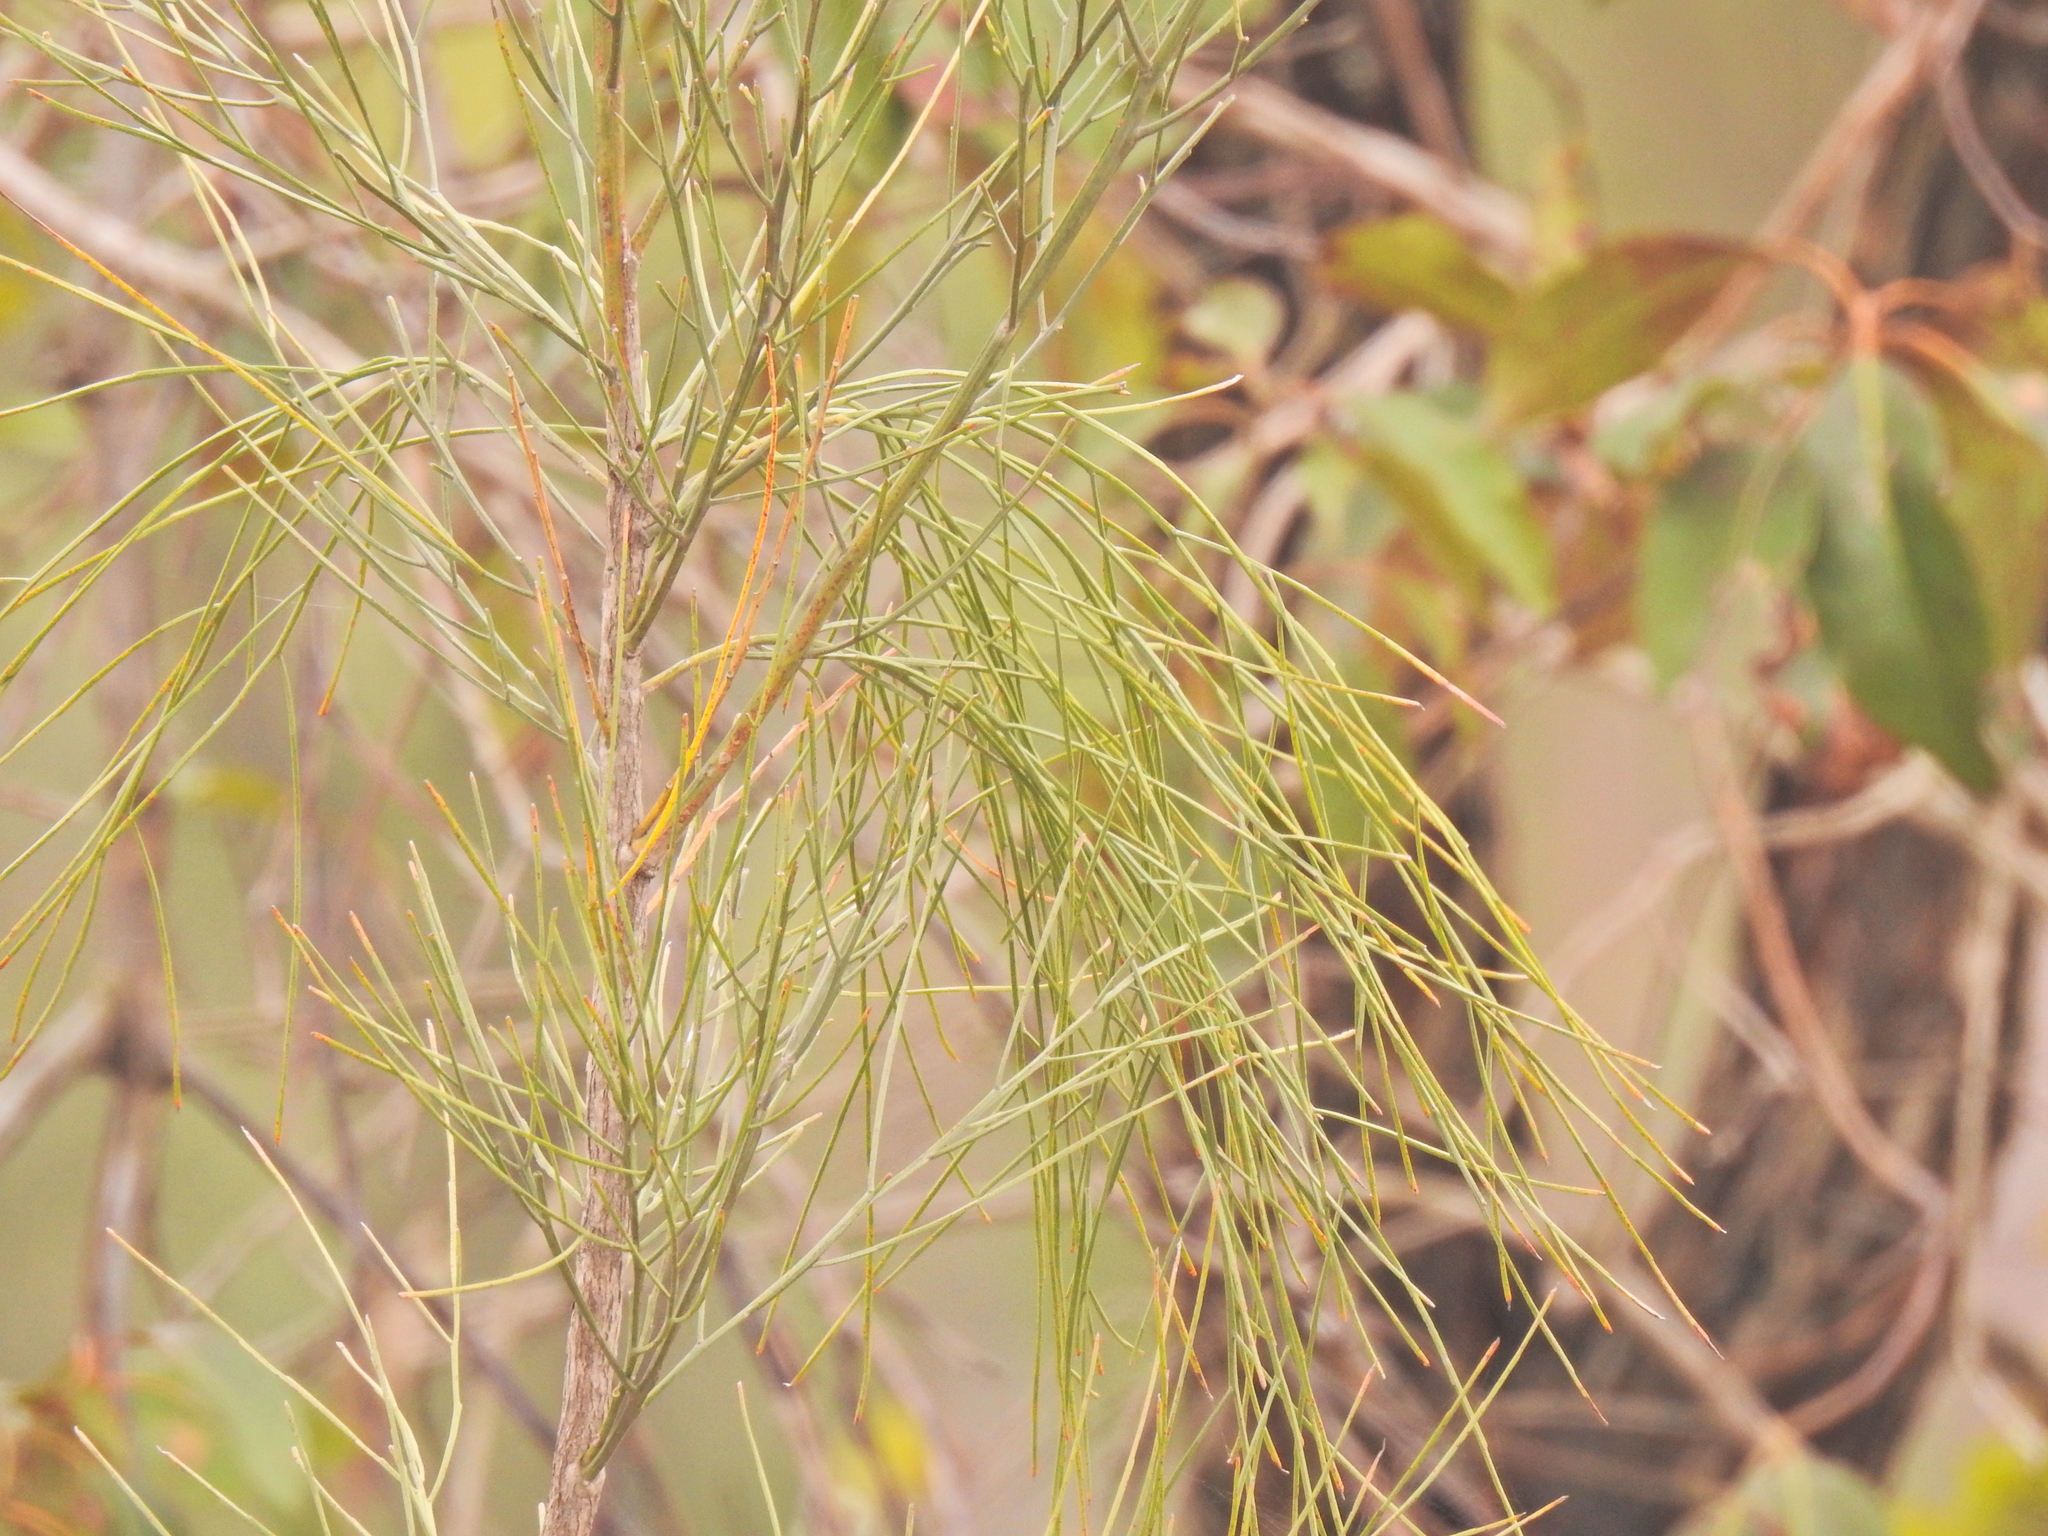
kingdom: Plantae
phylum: Tracheophyta
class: Magnoliopsida
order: Fabales
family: Fabaceae
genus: Jacksonia
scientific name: Jacksonia scoparia
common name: Dogwood
